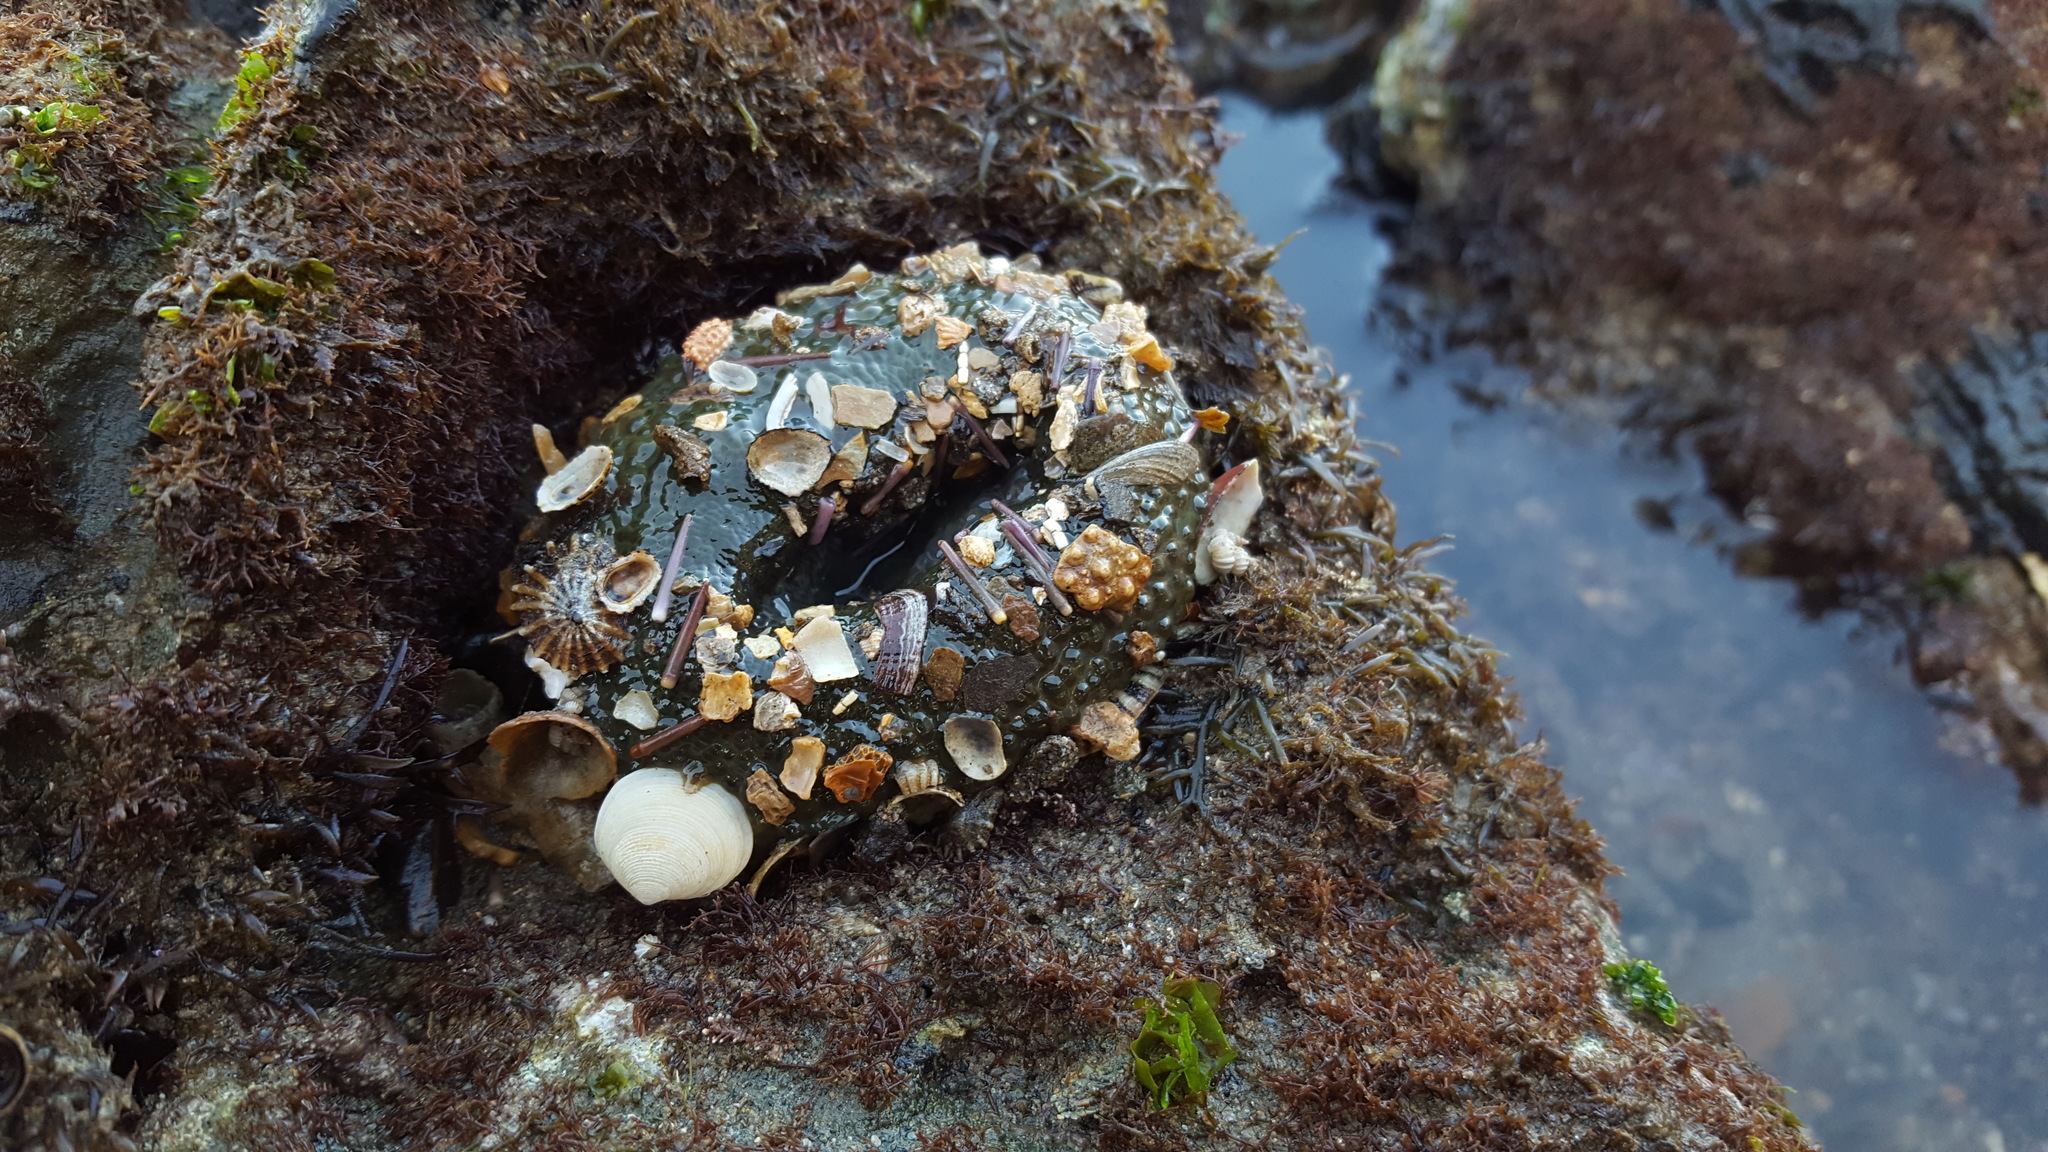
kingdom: Animalia
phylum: Cnidaria
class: Anthozoa
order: Actiniaria
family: Actiniidae
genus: Anthopleura
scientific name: Anthopleura
